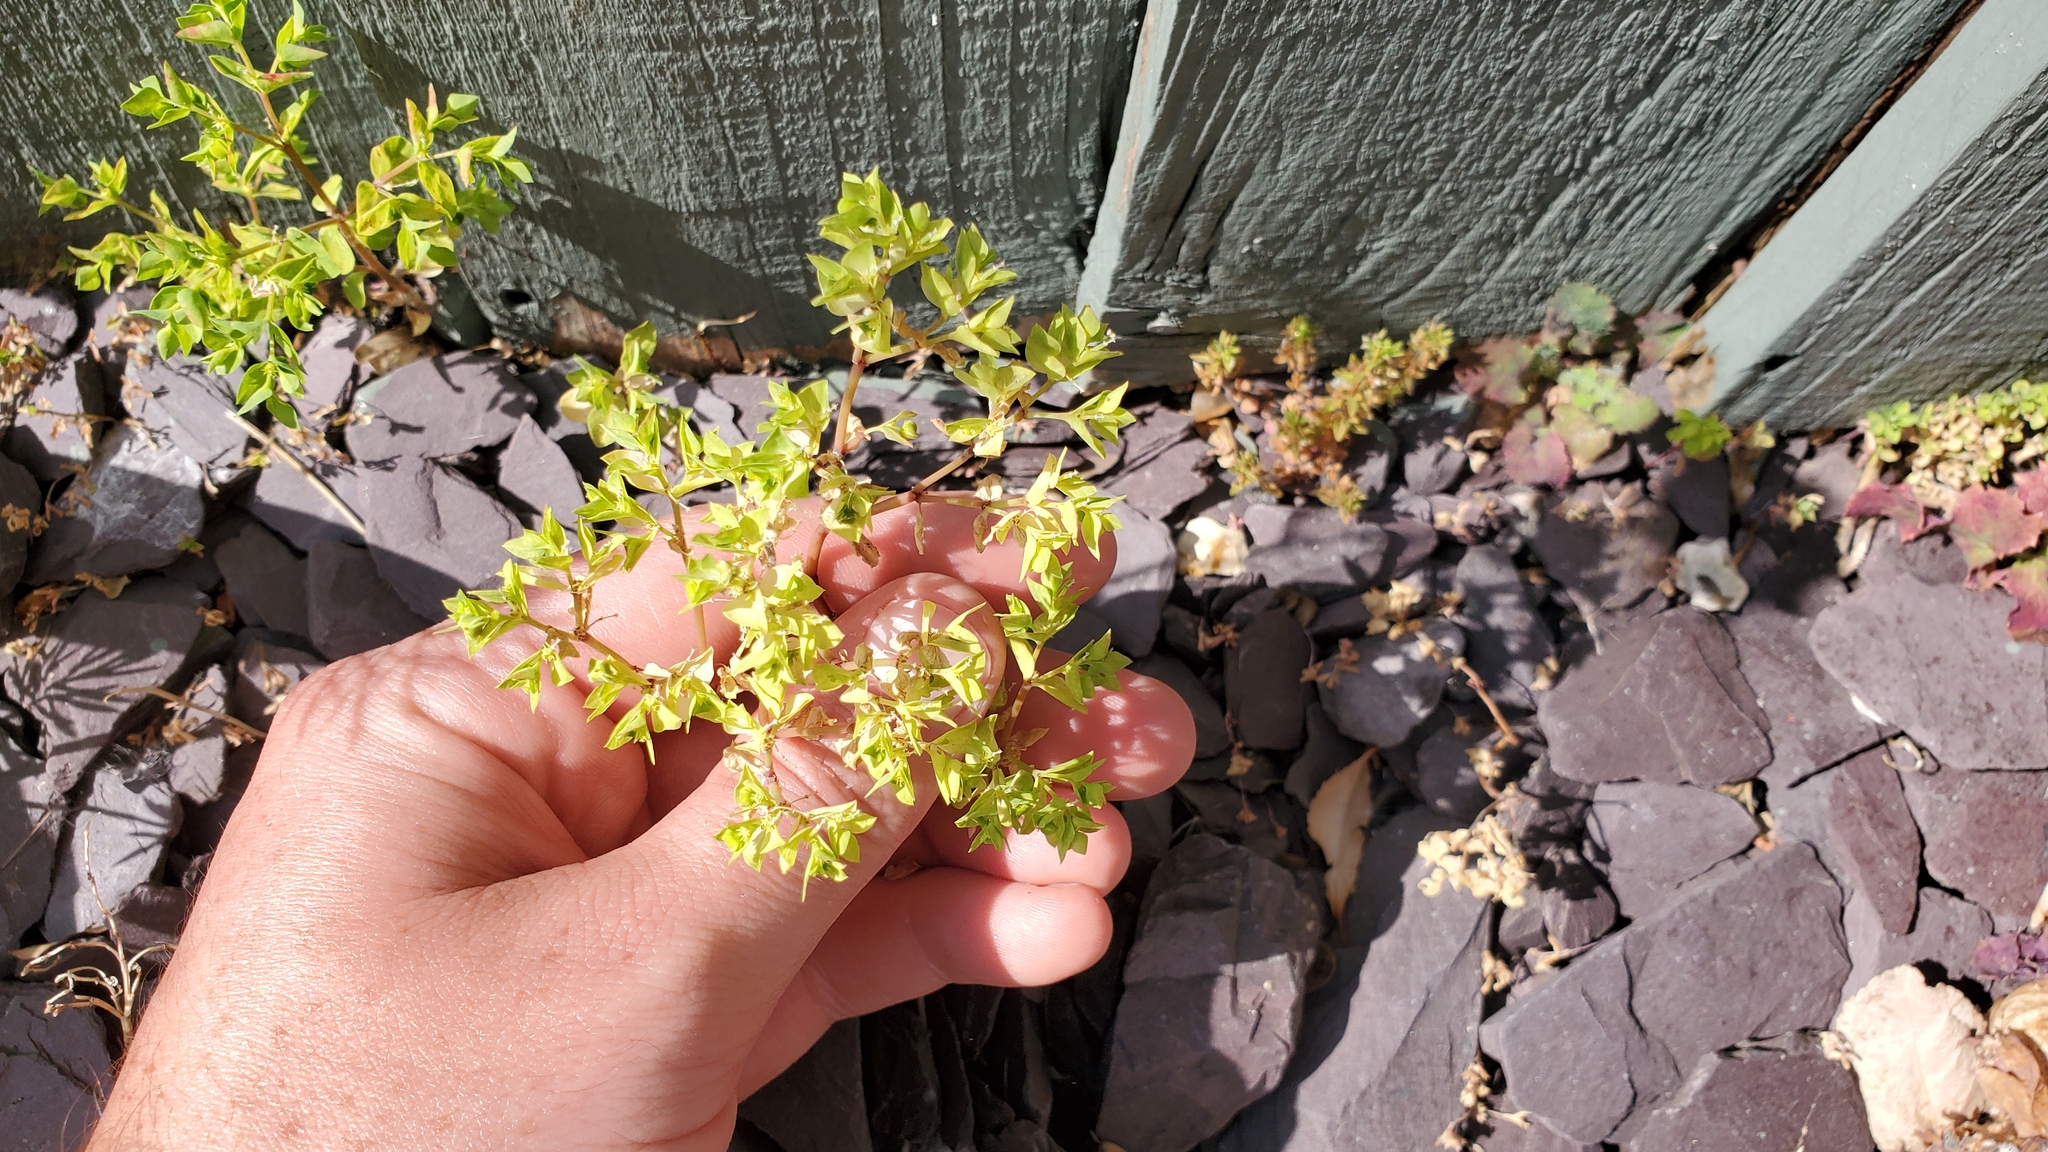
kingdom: Plantae
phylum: Tracheophyta
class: Magnoliopsida
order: Malpighiales
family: Euphorbiaceae
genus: Euphorbia
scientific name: Euphorbia peplus
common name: Petty spurge
